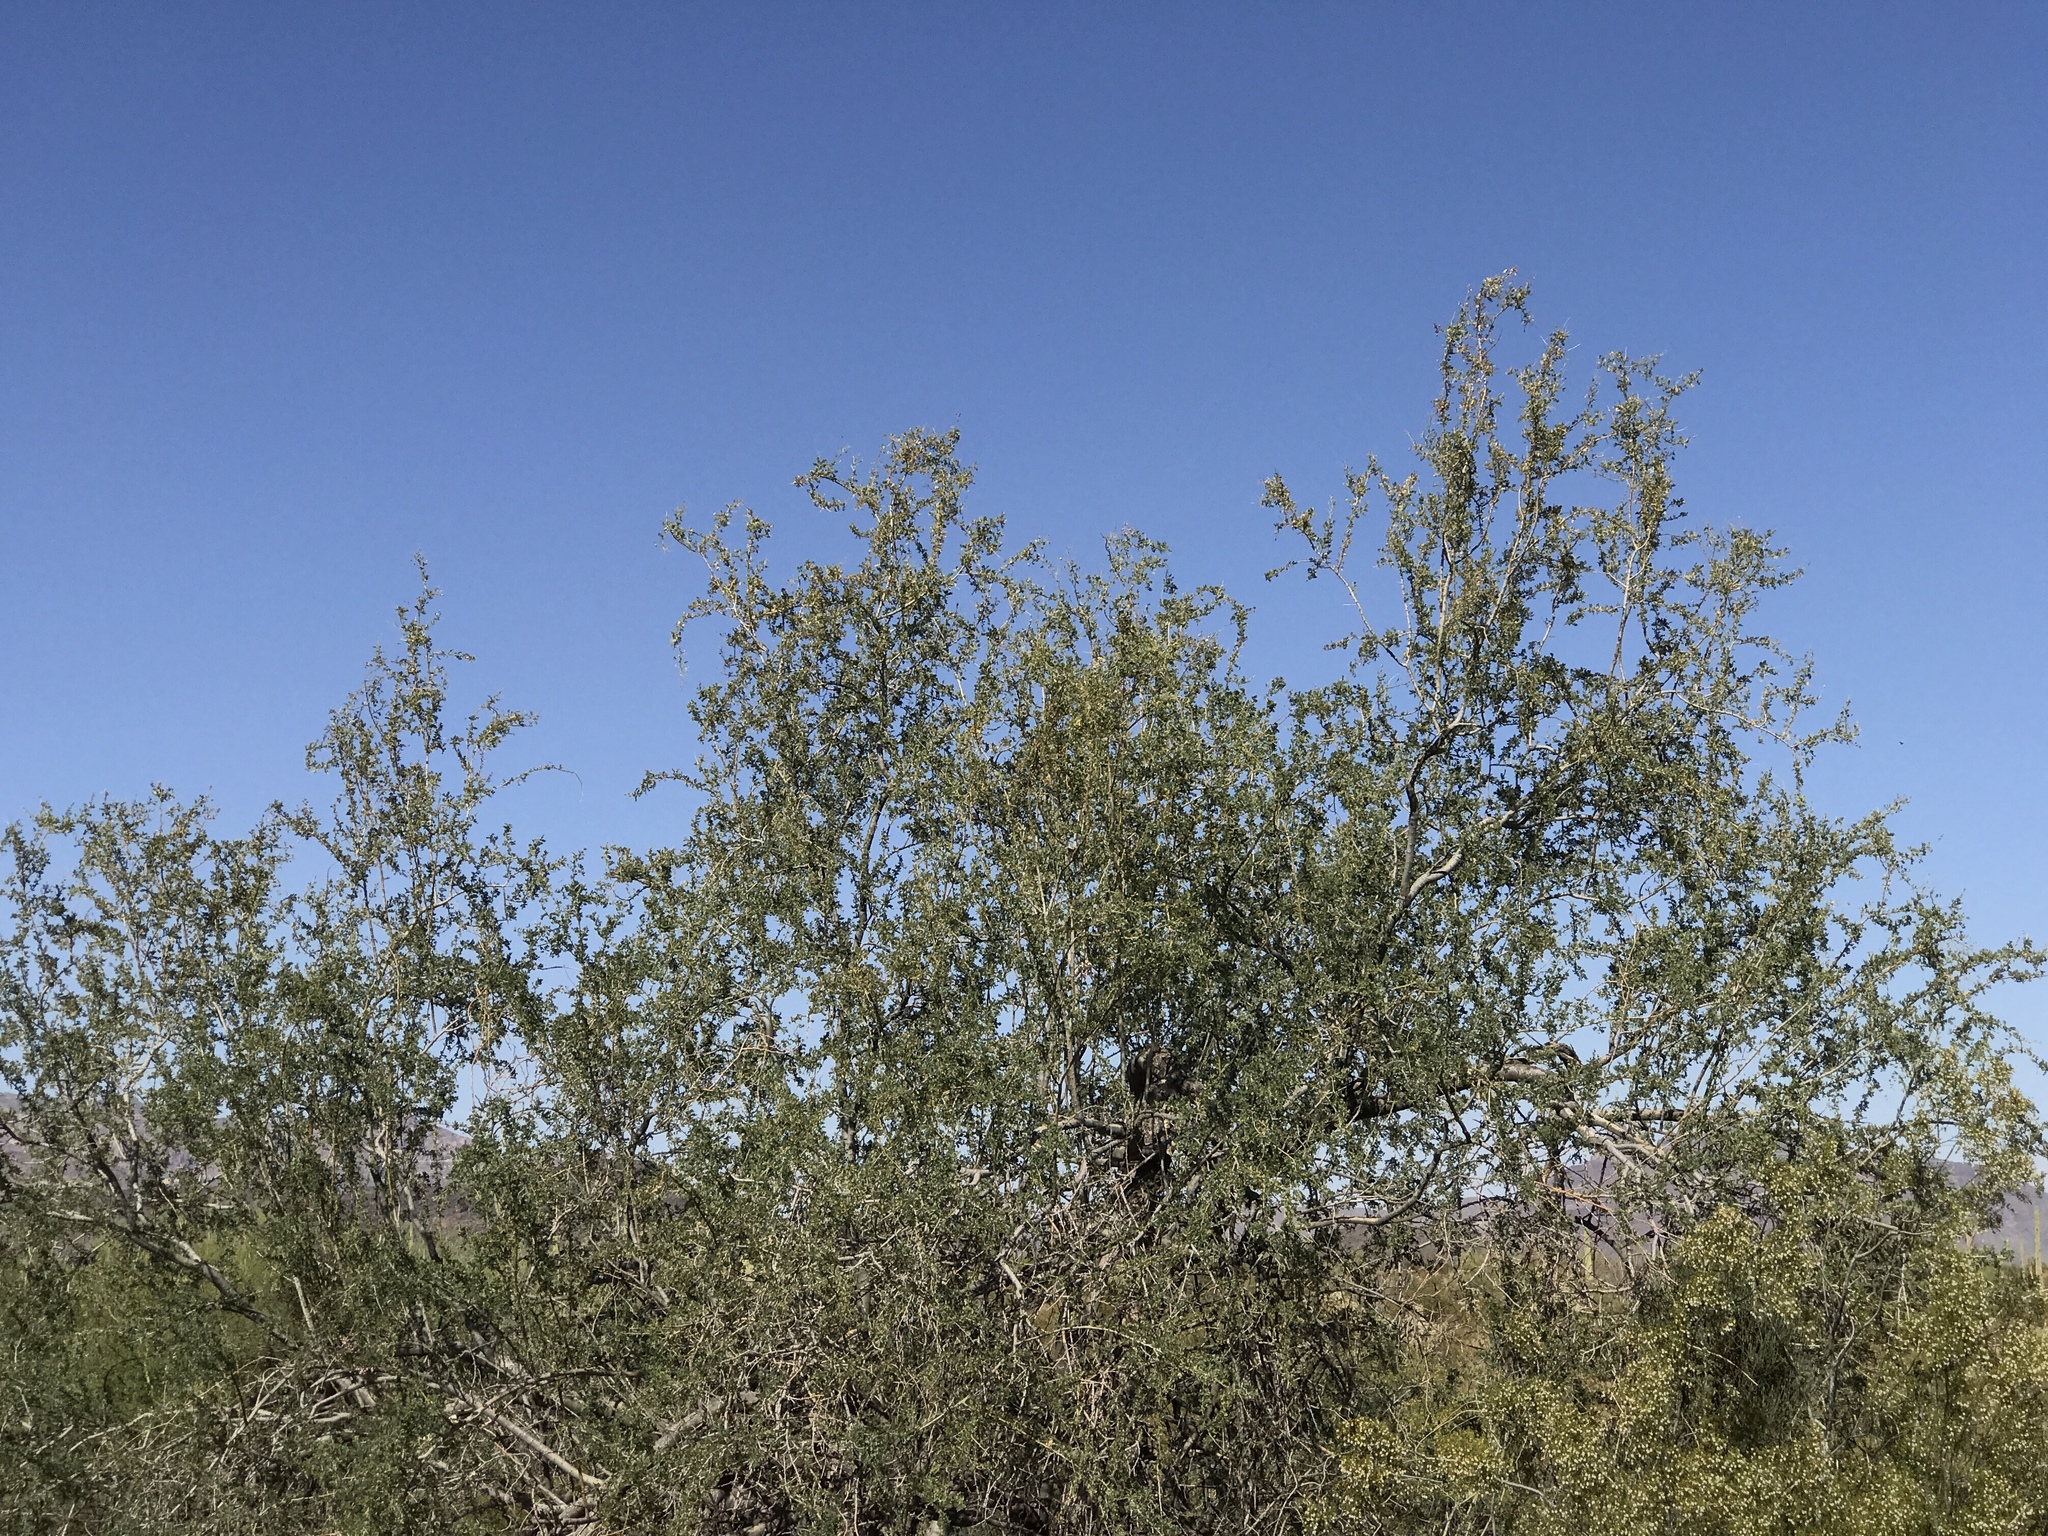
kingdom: Plantae
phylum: Tracheophyta
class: Magnoliopsida
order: Fabales
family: Fabaceae
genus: Olneya
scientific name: Olneya tesota
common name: Desert ironwood
